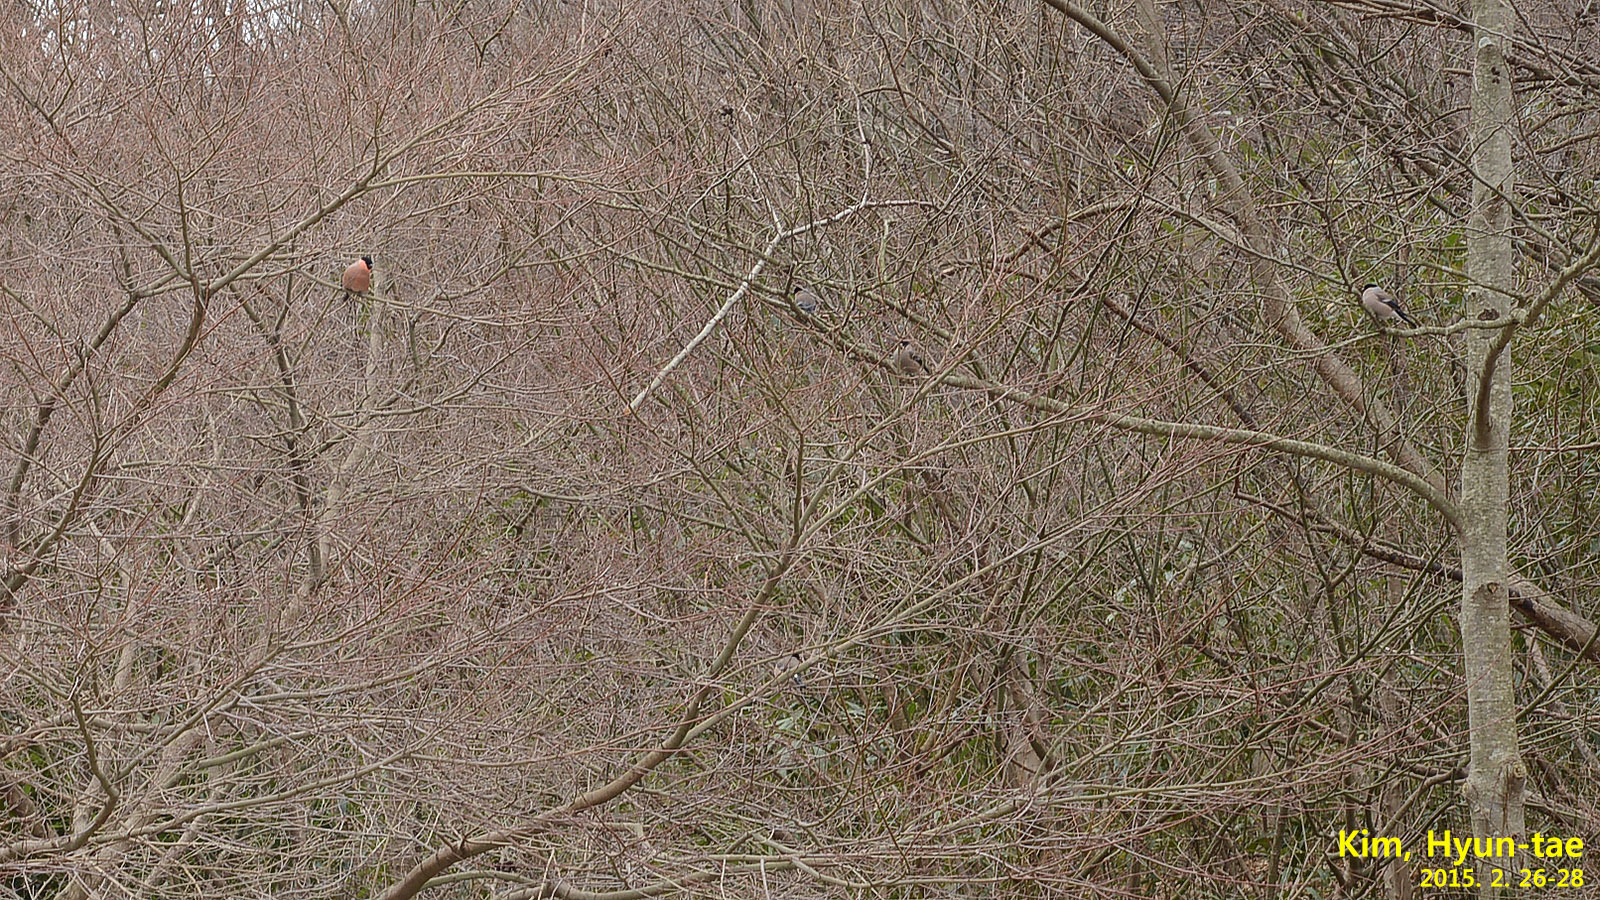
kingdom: Animalia
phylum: Chordata
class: Aves
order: Passeriformes
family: Fringillidae
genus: Pyrrhula
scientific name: Pyrrhula pyrrhula
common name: Eurasian bullfinch
